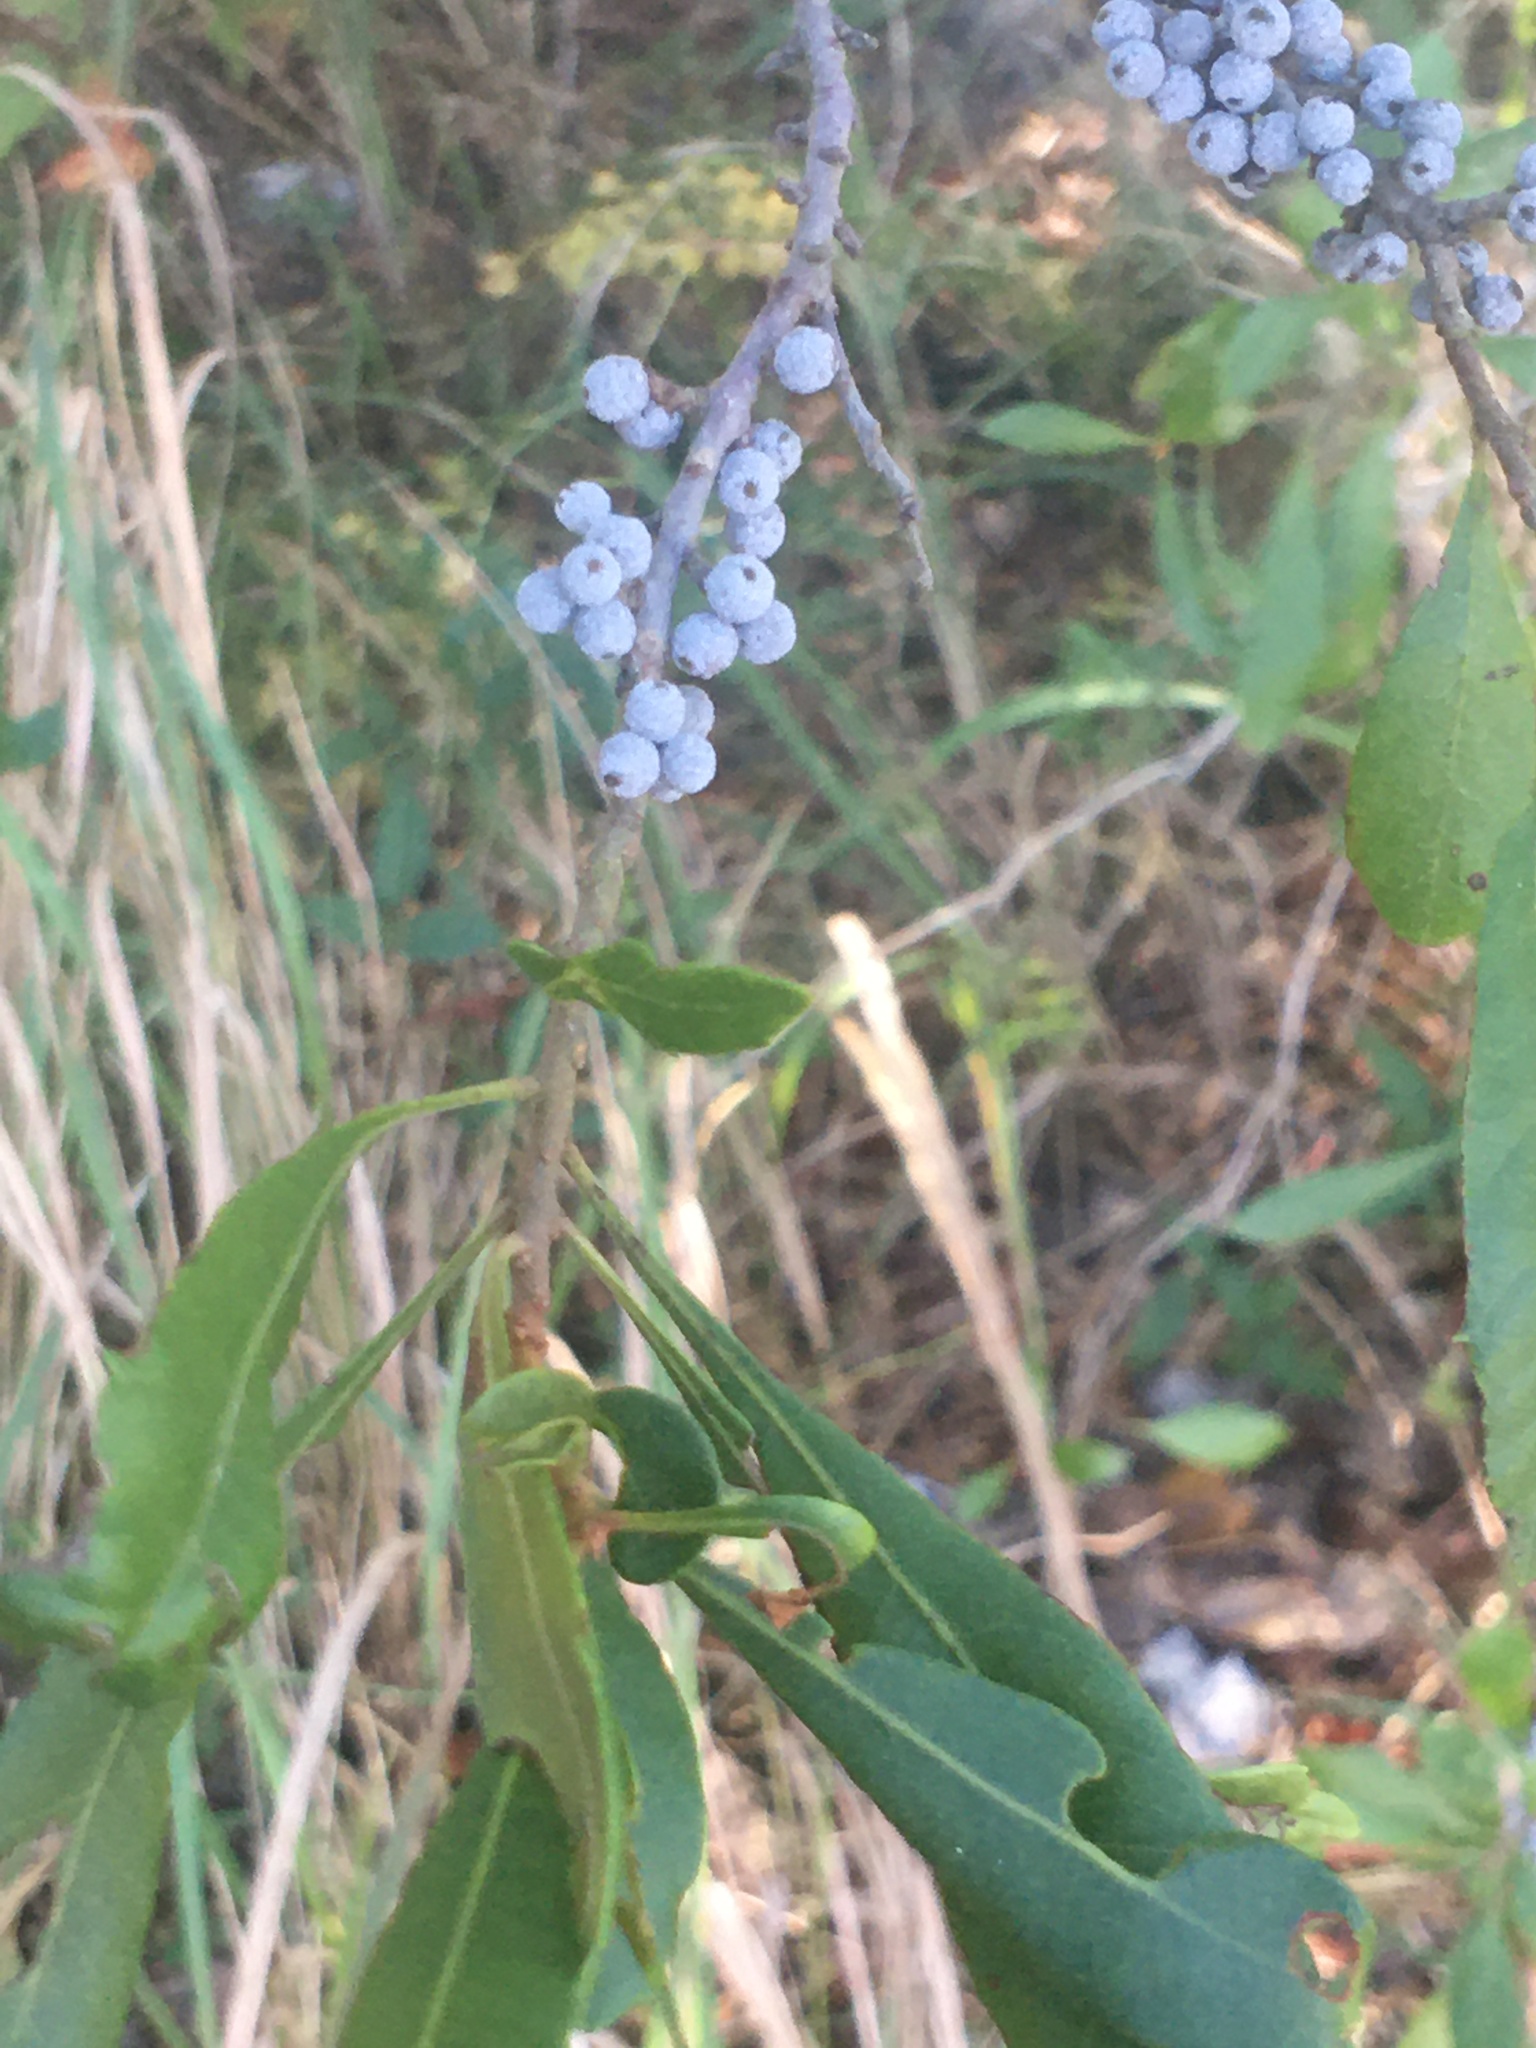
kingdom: Plantae
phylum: Tracheophyta
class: Magnoliopsida
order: Fagales
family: Myricaceae
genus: Morella
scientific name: Morella cerifera
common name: Wax myrtle
